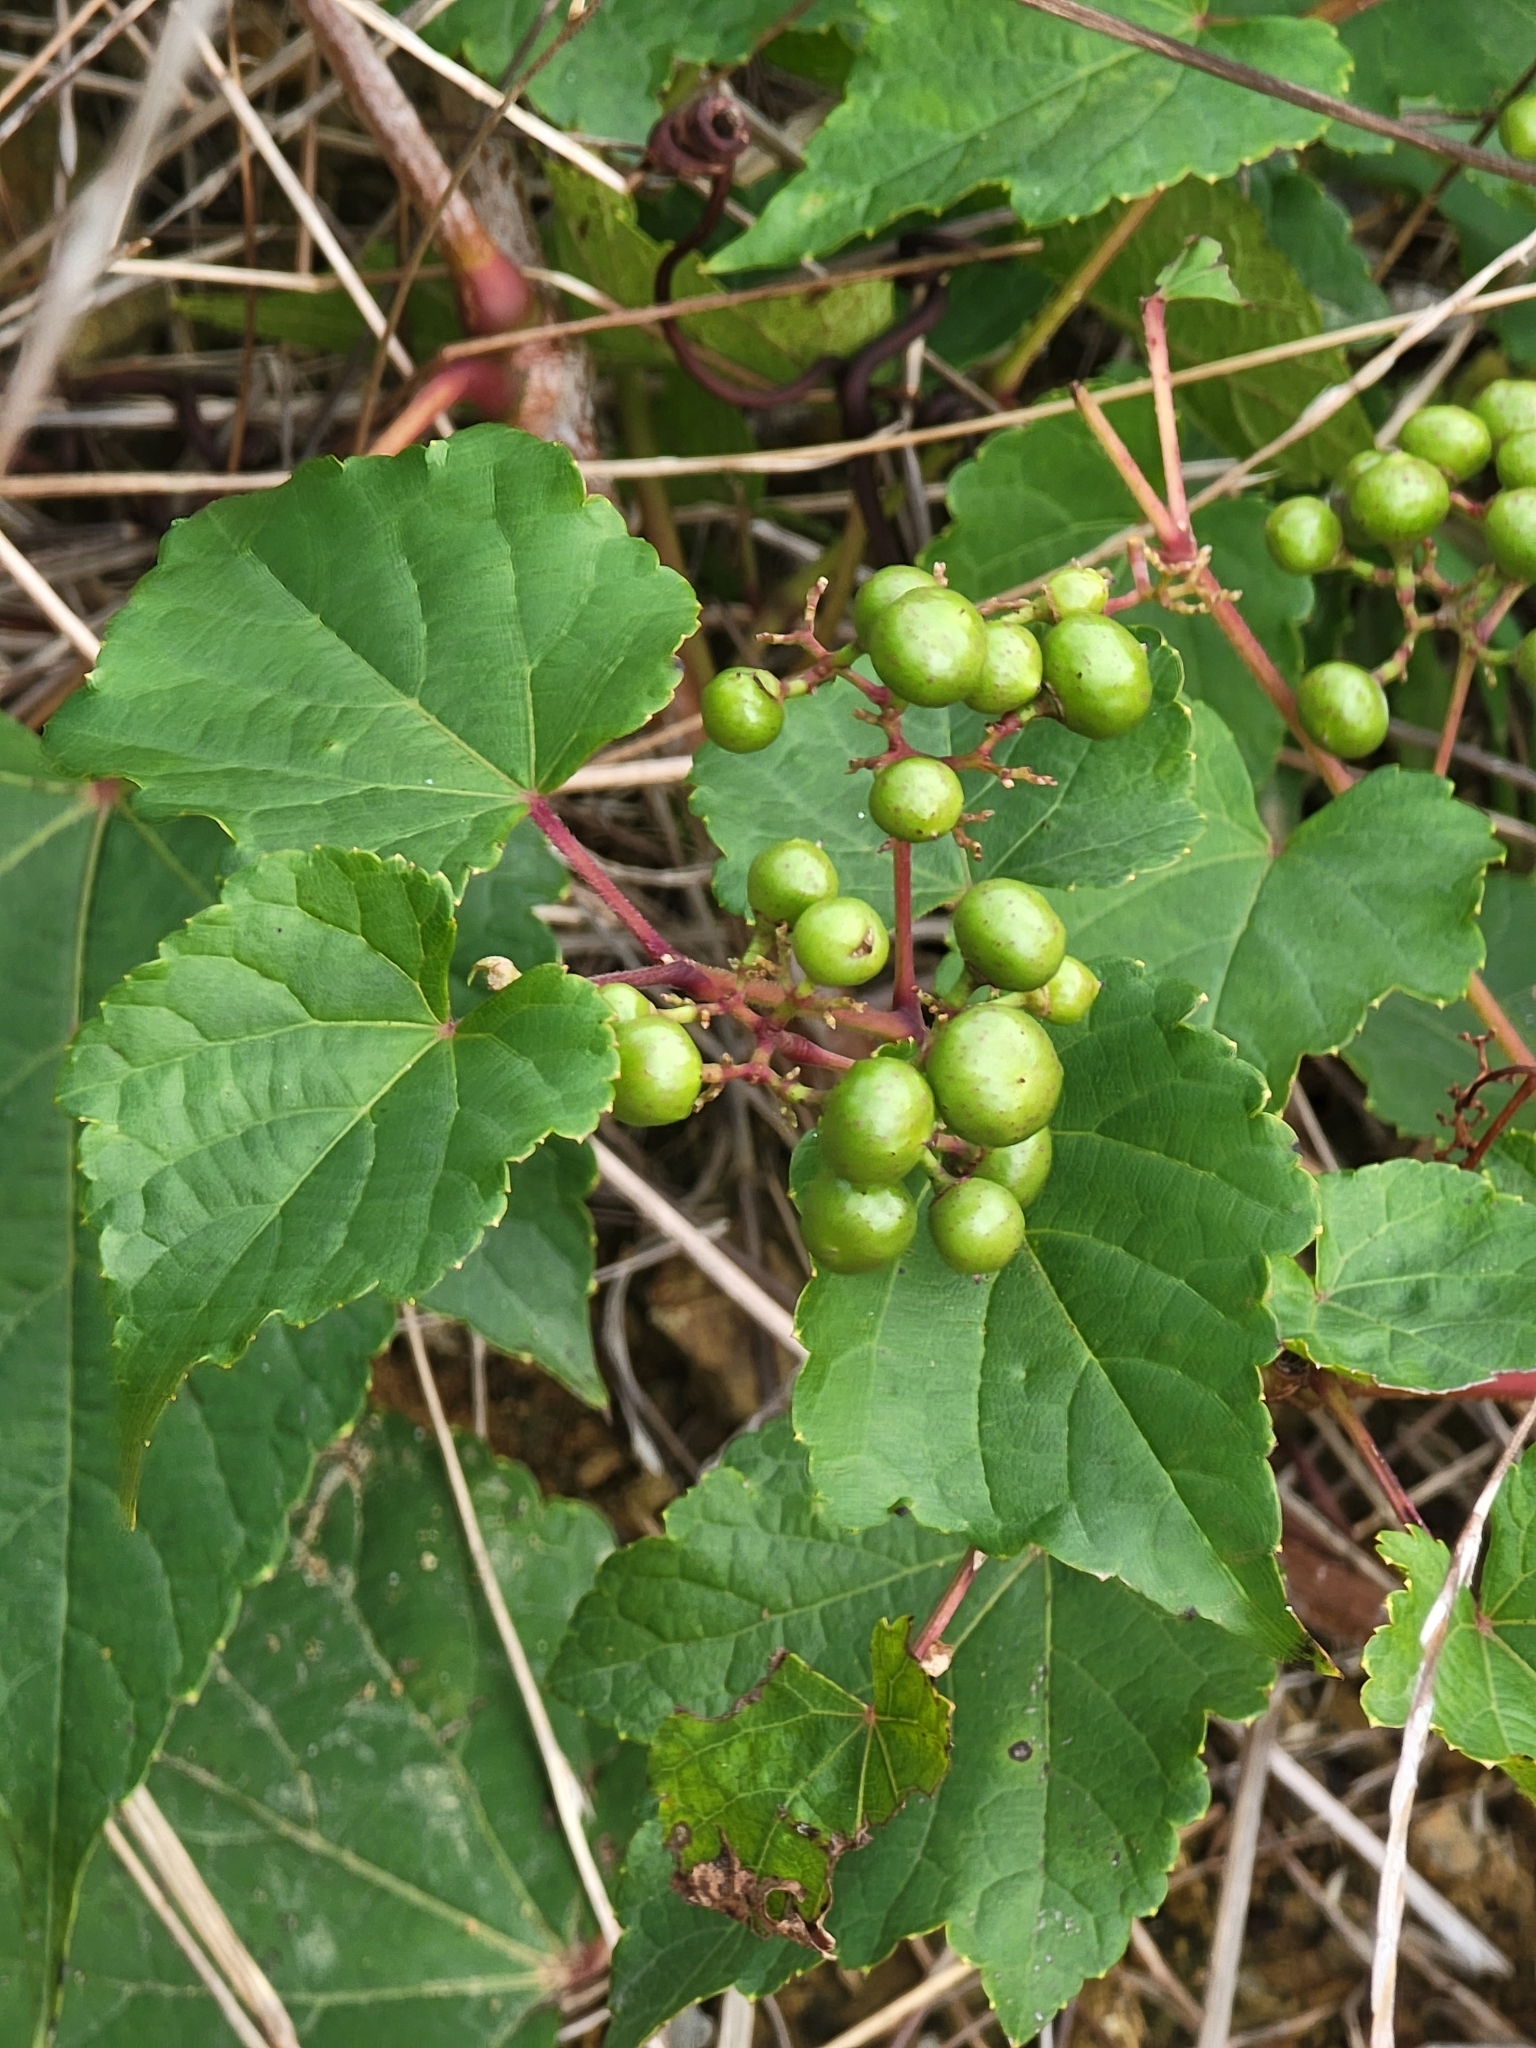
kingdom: Plantae
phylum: Tracheophyta
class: Magnoliopsida
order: Vitales
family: Vitaceae
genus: Ampelopsis
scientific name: Ampelopsis glandulosa
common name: Amur peppervine
